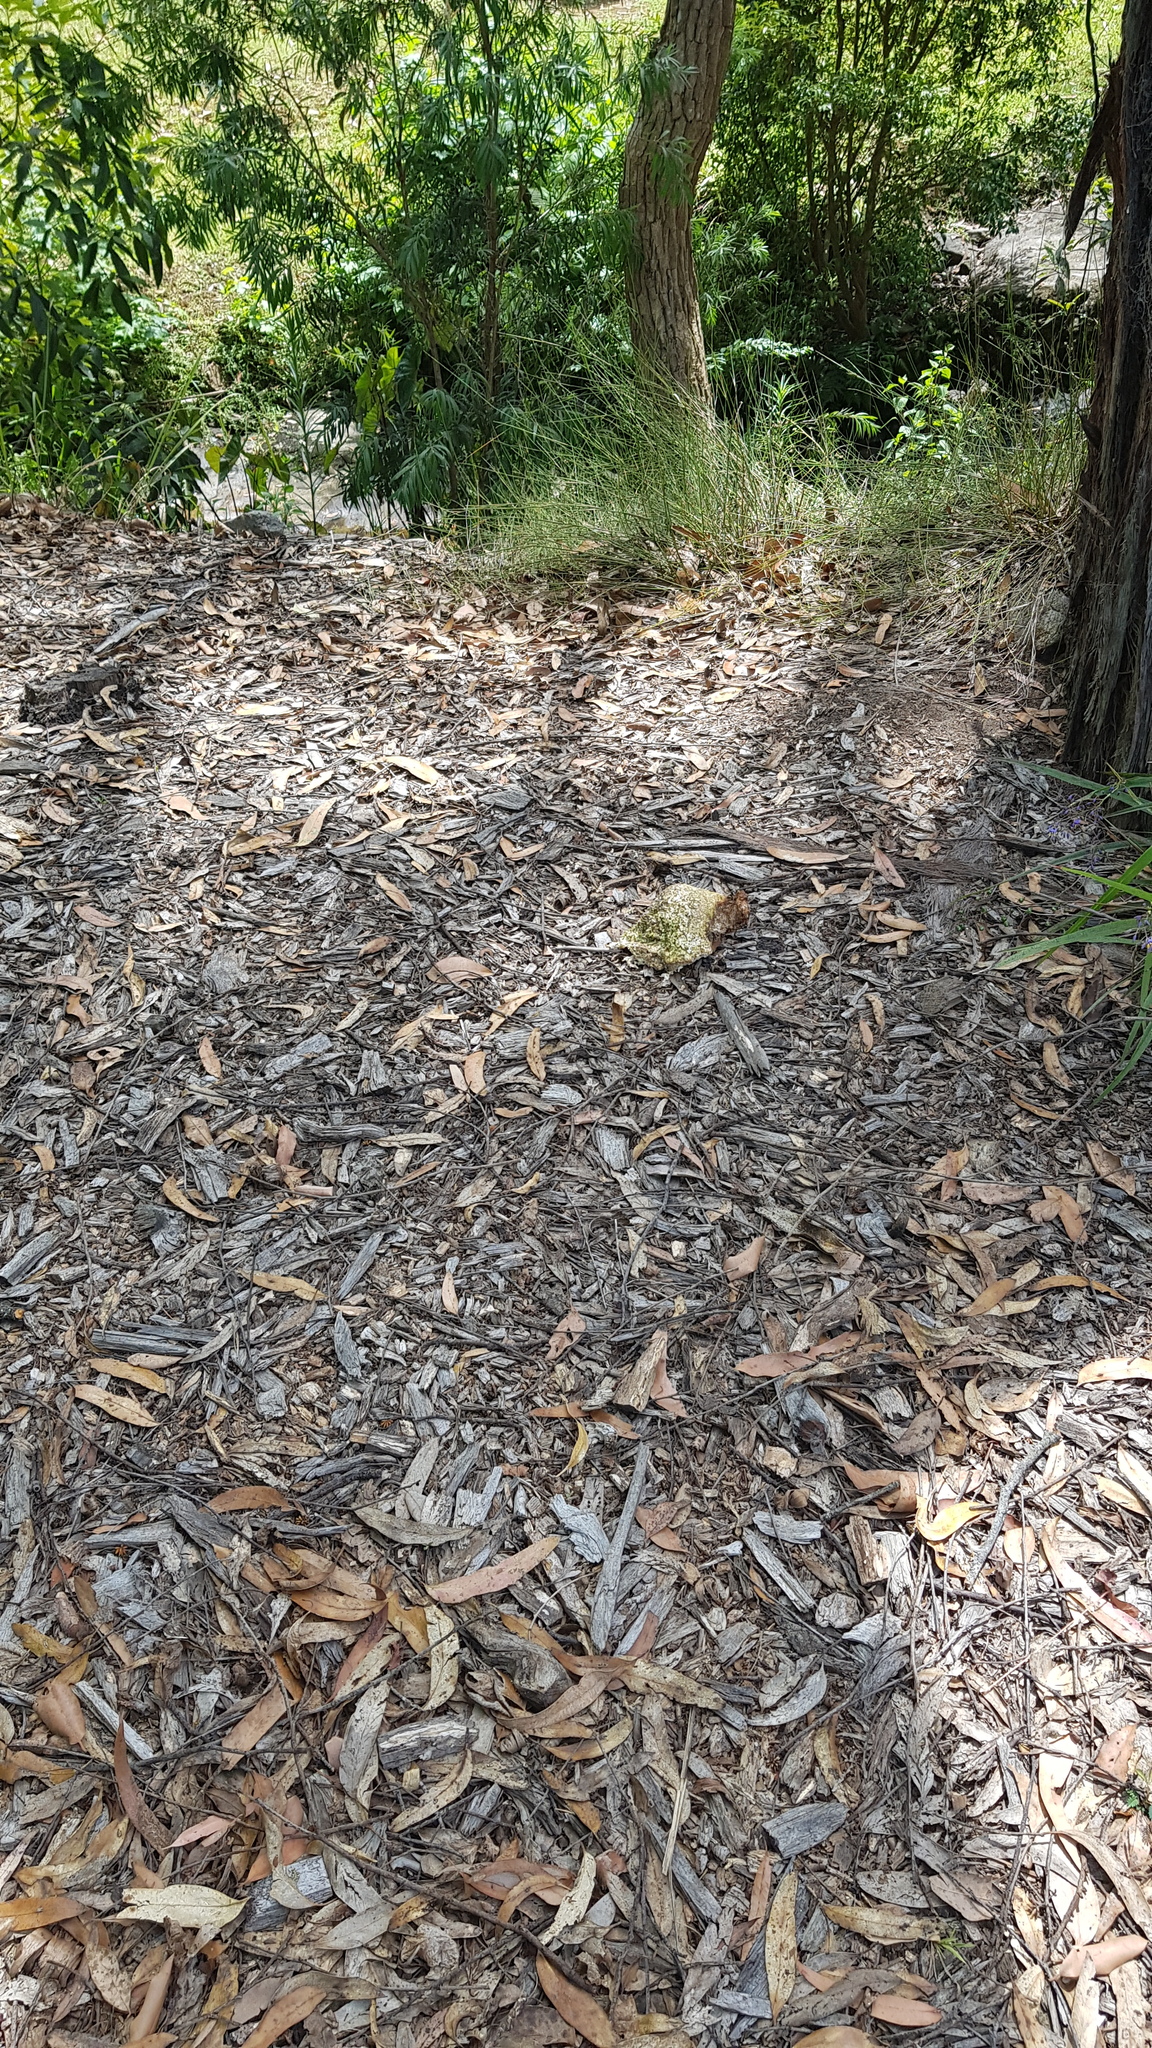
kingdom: Fungi
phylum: Basidiomycota
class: Agaricomycetes
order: Polyporales
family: Laetiporaceae
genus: Laetiporus
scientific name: Laetiporus portentosus
